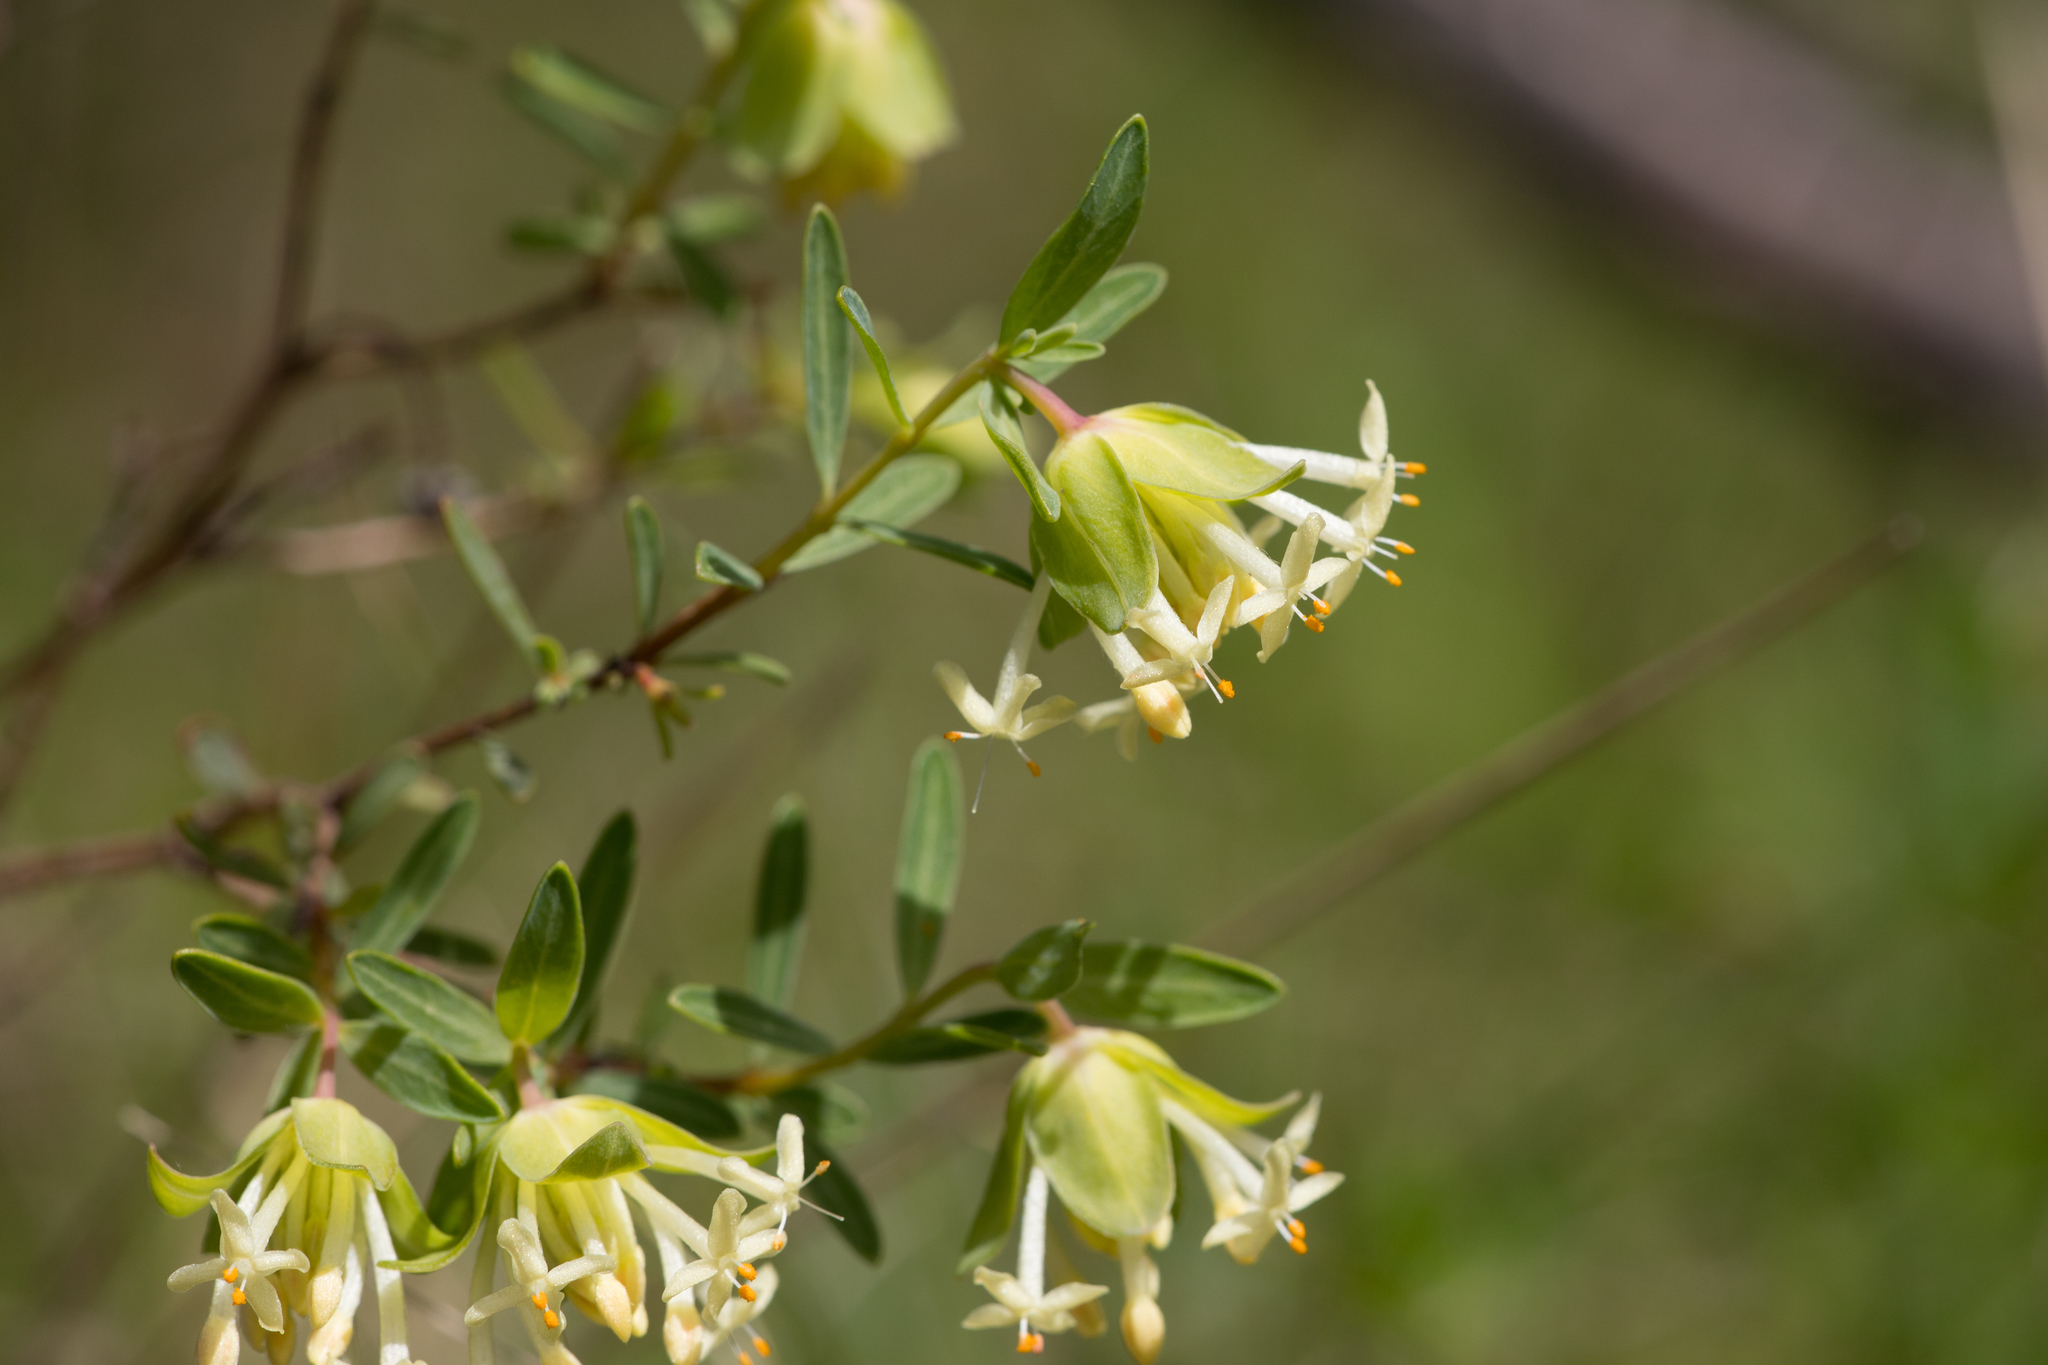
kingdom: Plantae
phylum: Tracheophyta
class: Magnoliopsida
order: Malvales
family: Thymelaeaceae
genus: Pimelea
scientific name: Pimelea linifolia
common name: Queen-of-the-bush
